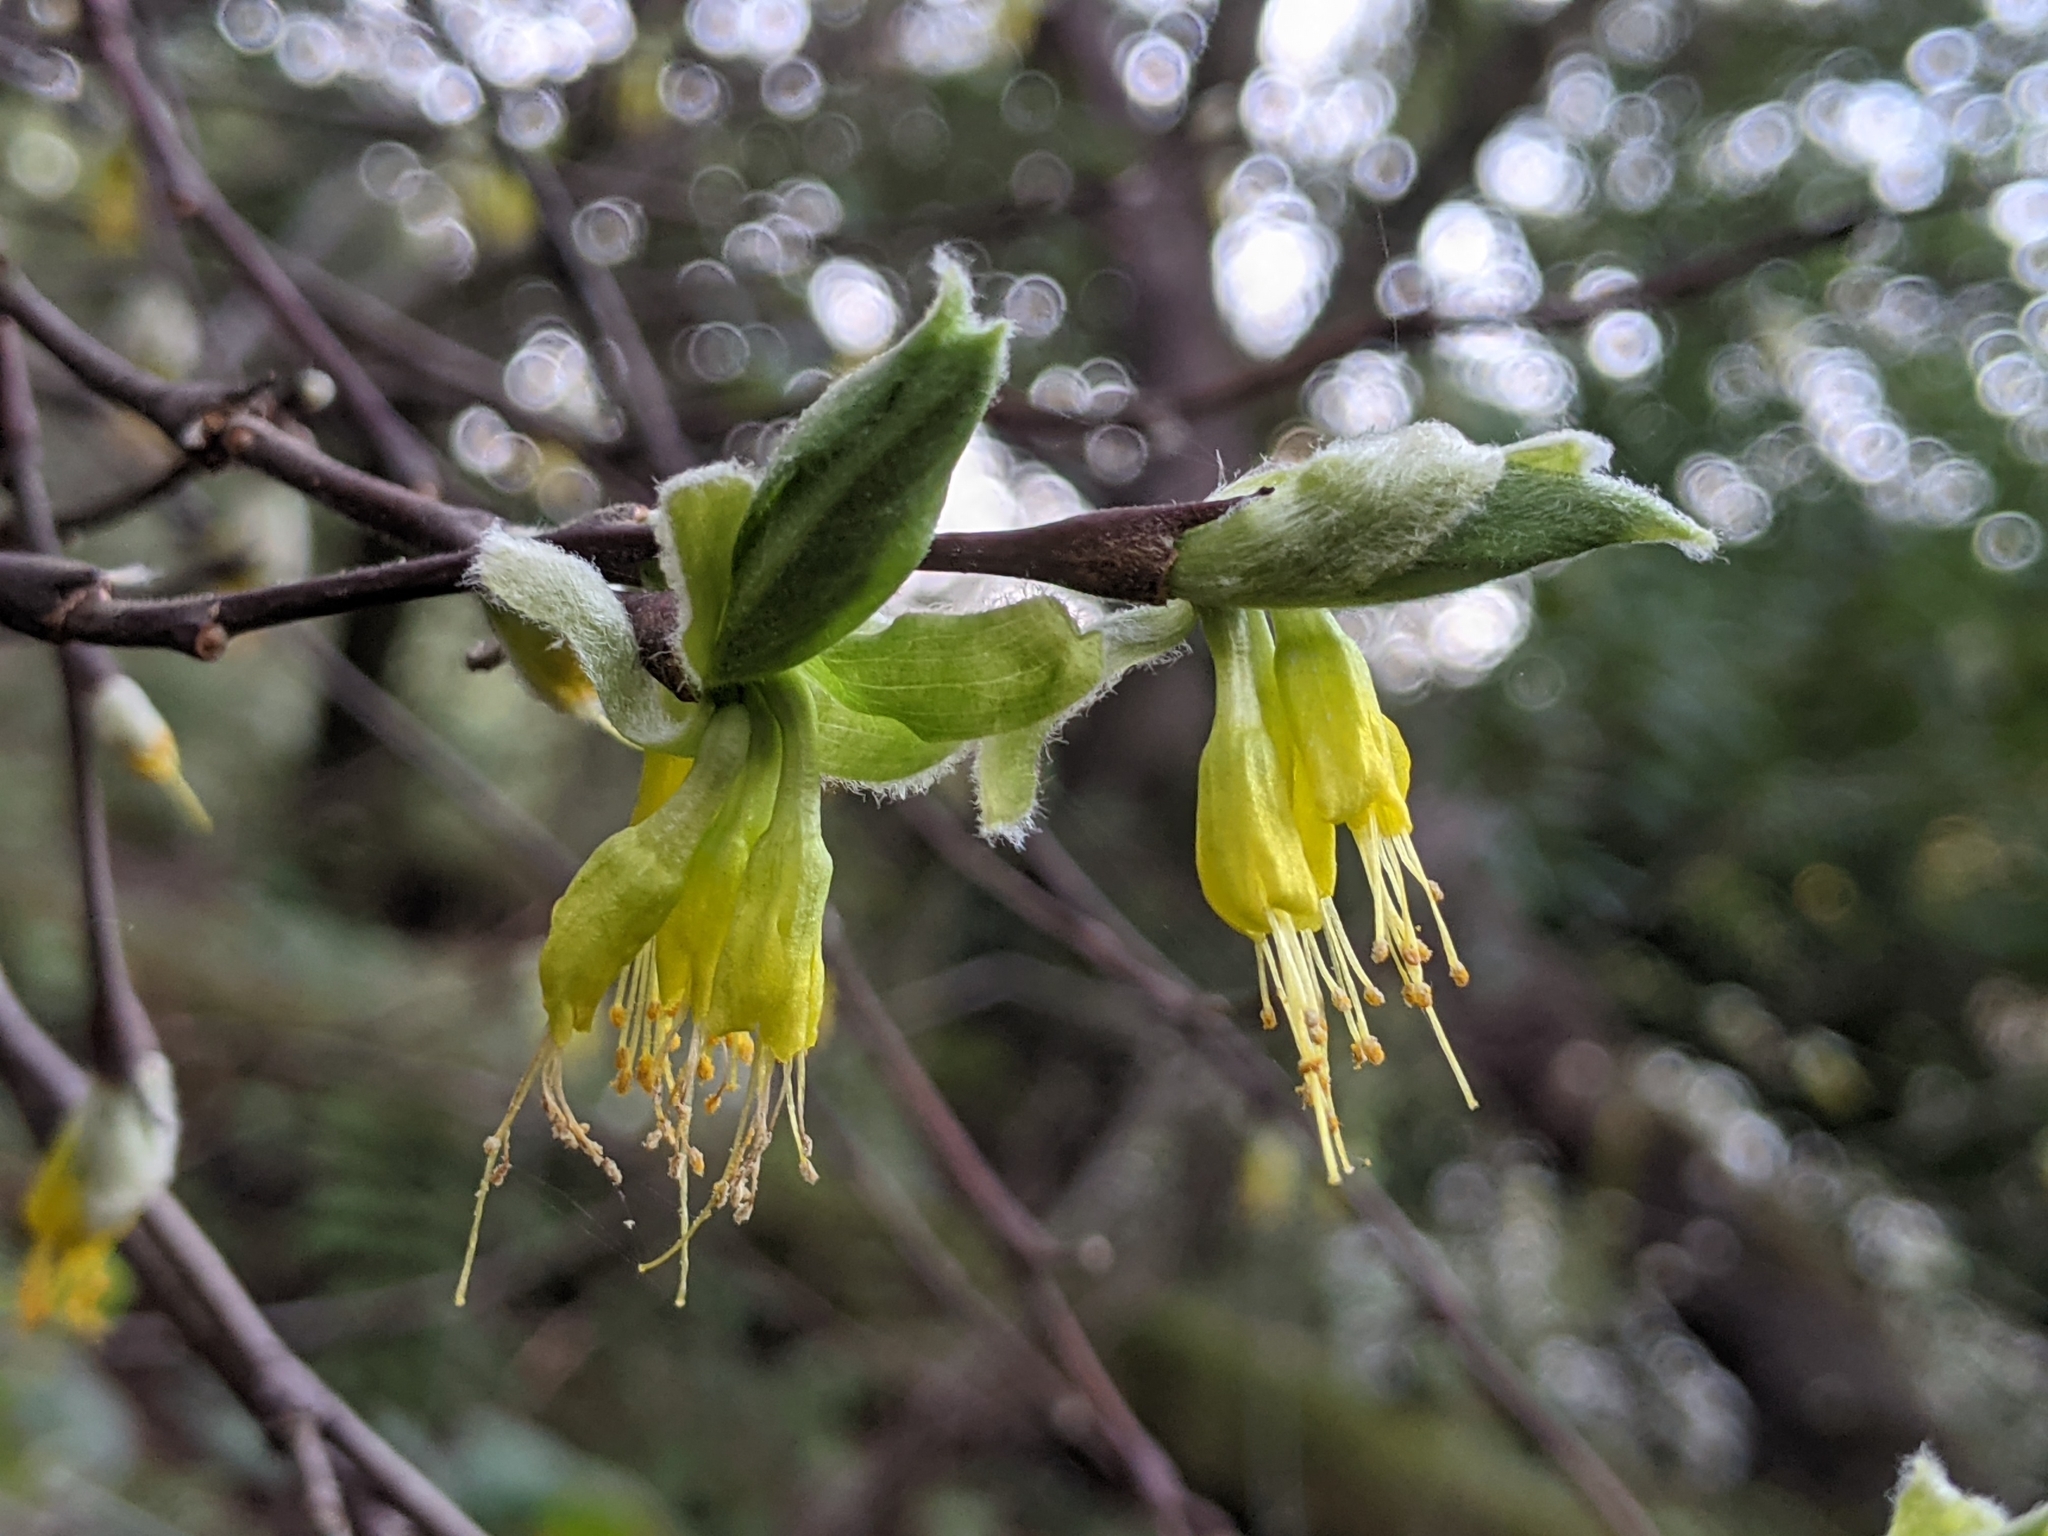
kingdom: Plantae
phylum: Tracheophyta
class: Magnoliopsida
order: Malvales
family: Thymelaeaceae
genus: Dirca
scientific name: Dirca occidentalis
